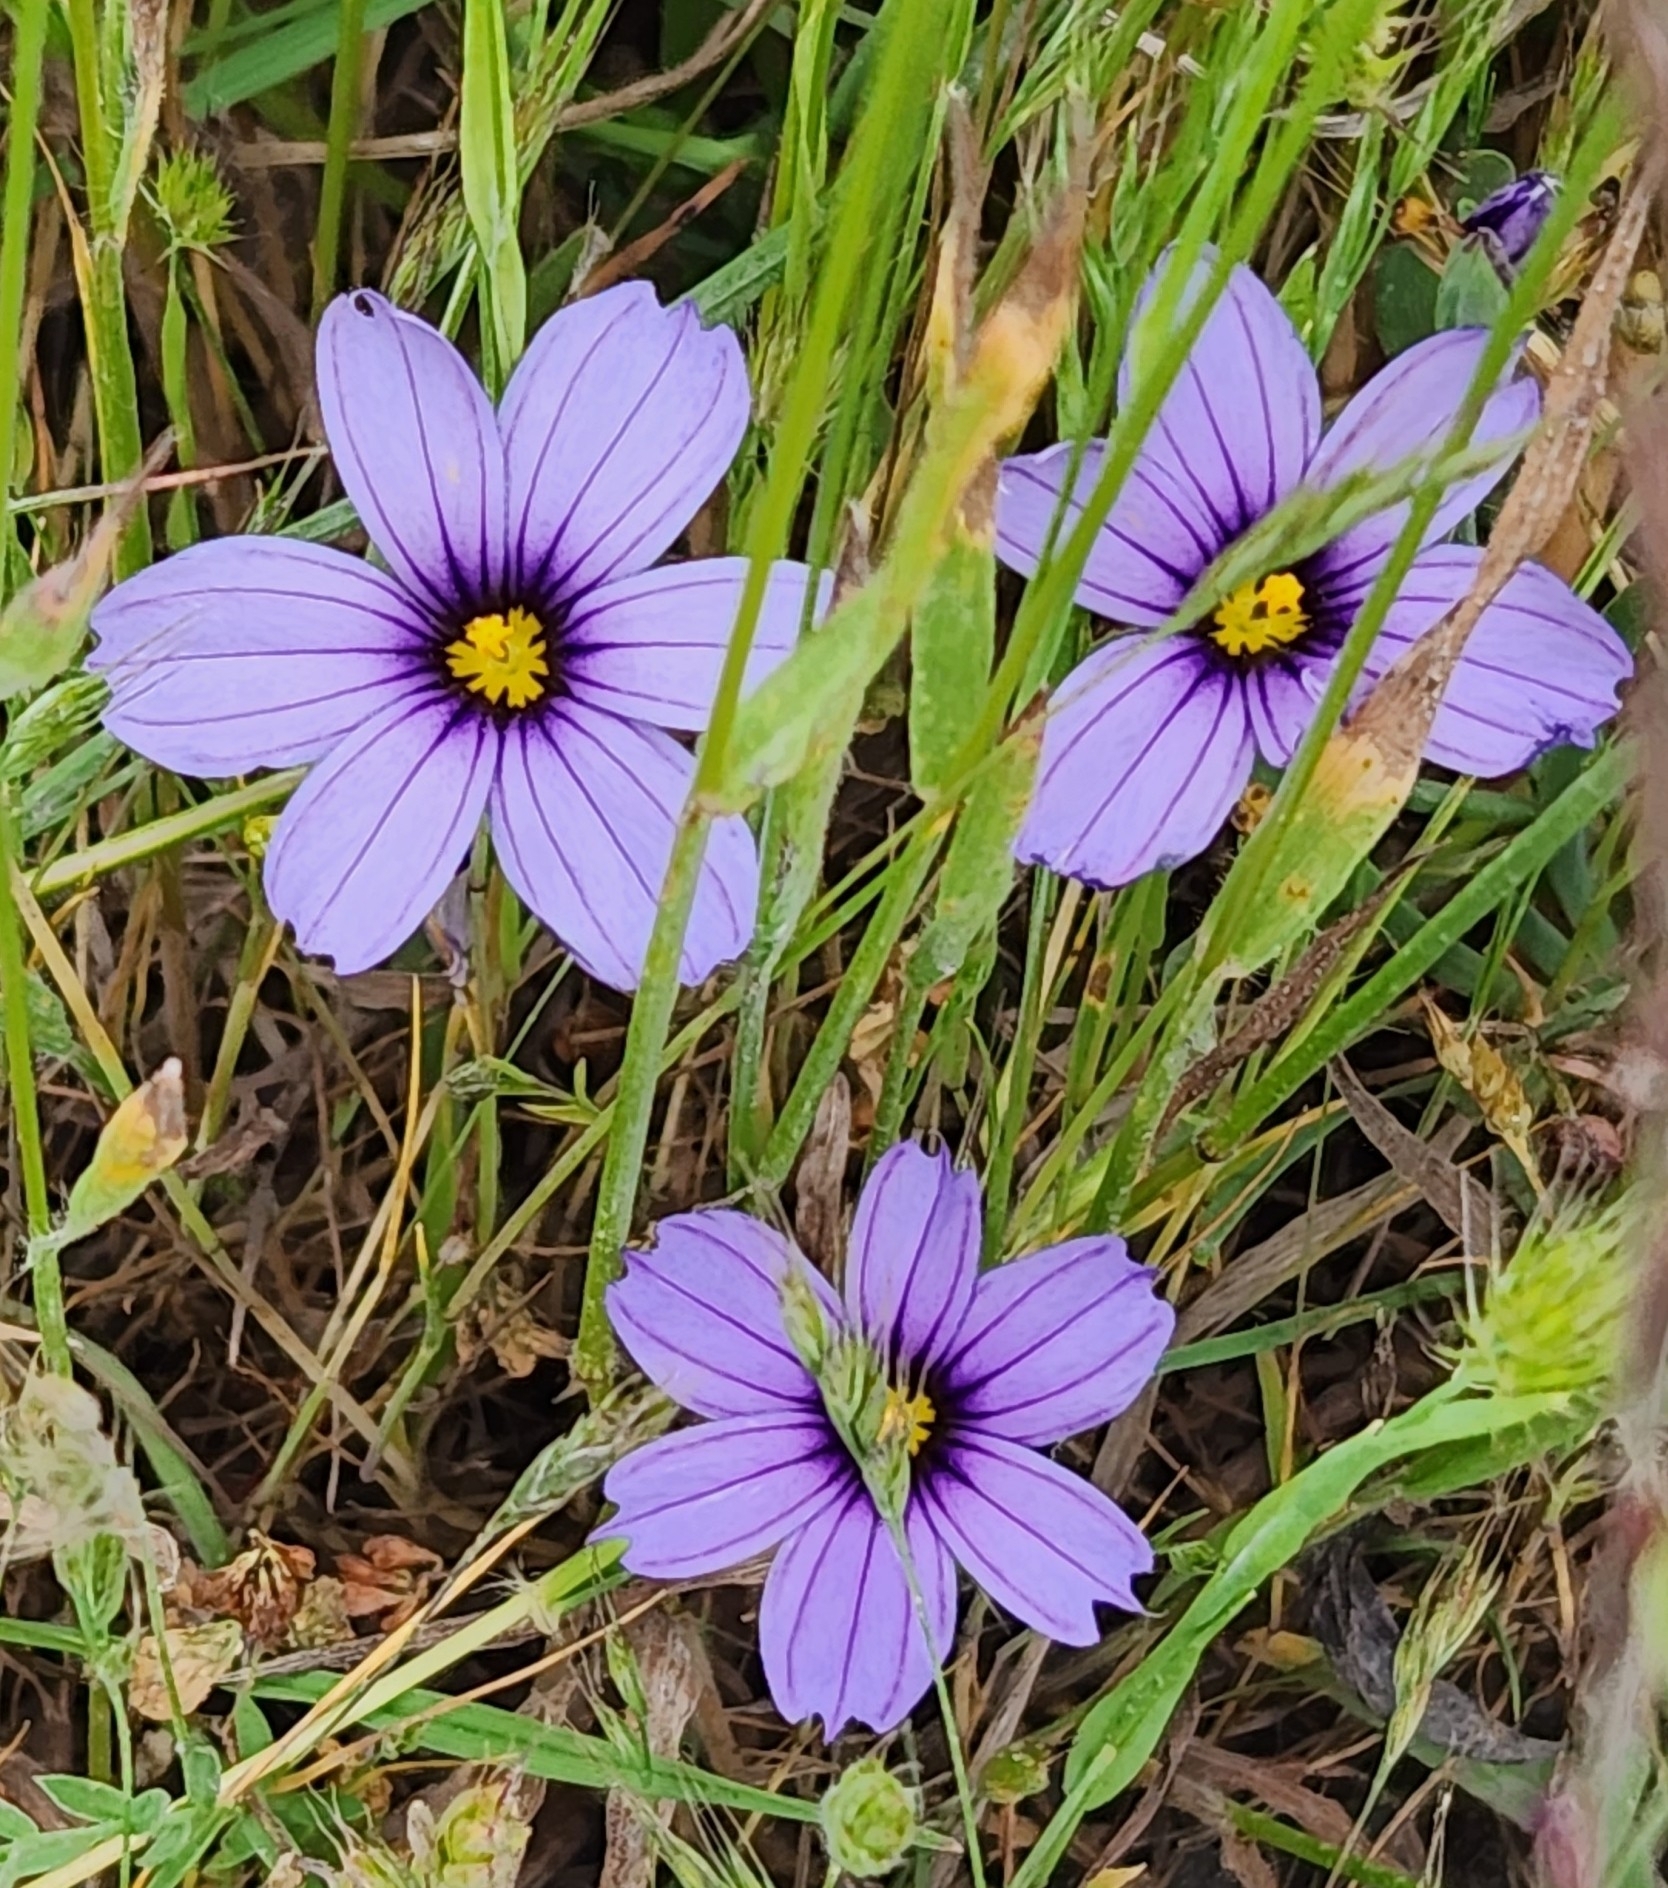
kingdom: Plantae
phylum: Tracheophyta
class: Liliopsida
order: Asparagales
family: Iridaceae
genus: Sisyrinchium
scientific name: Sisyrinchium bellum
